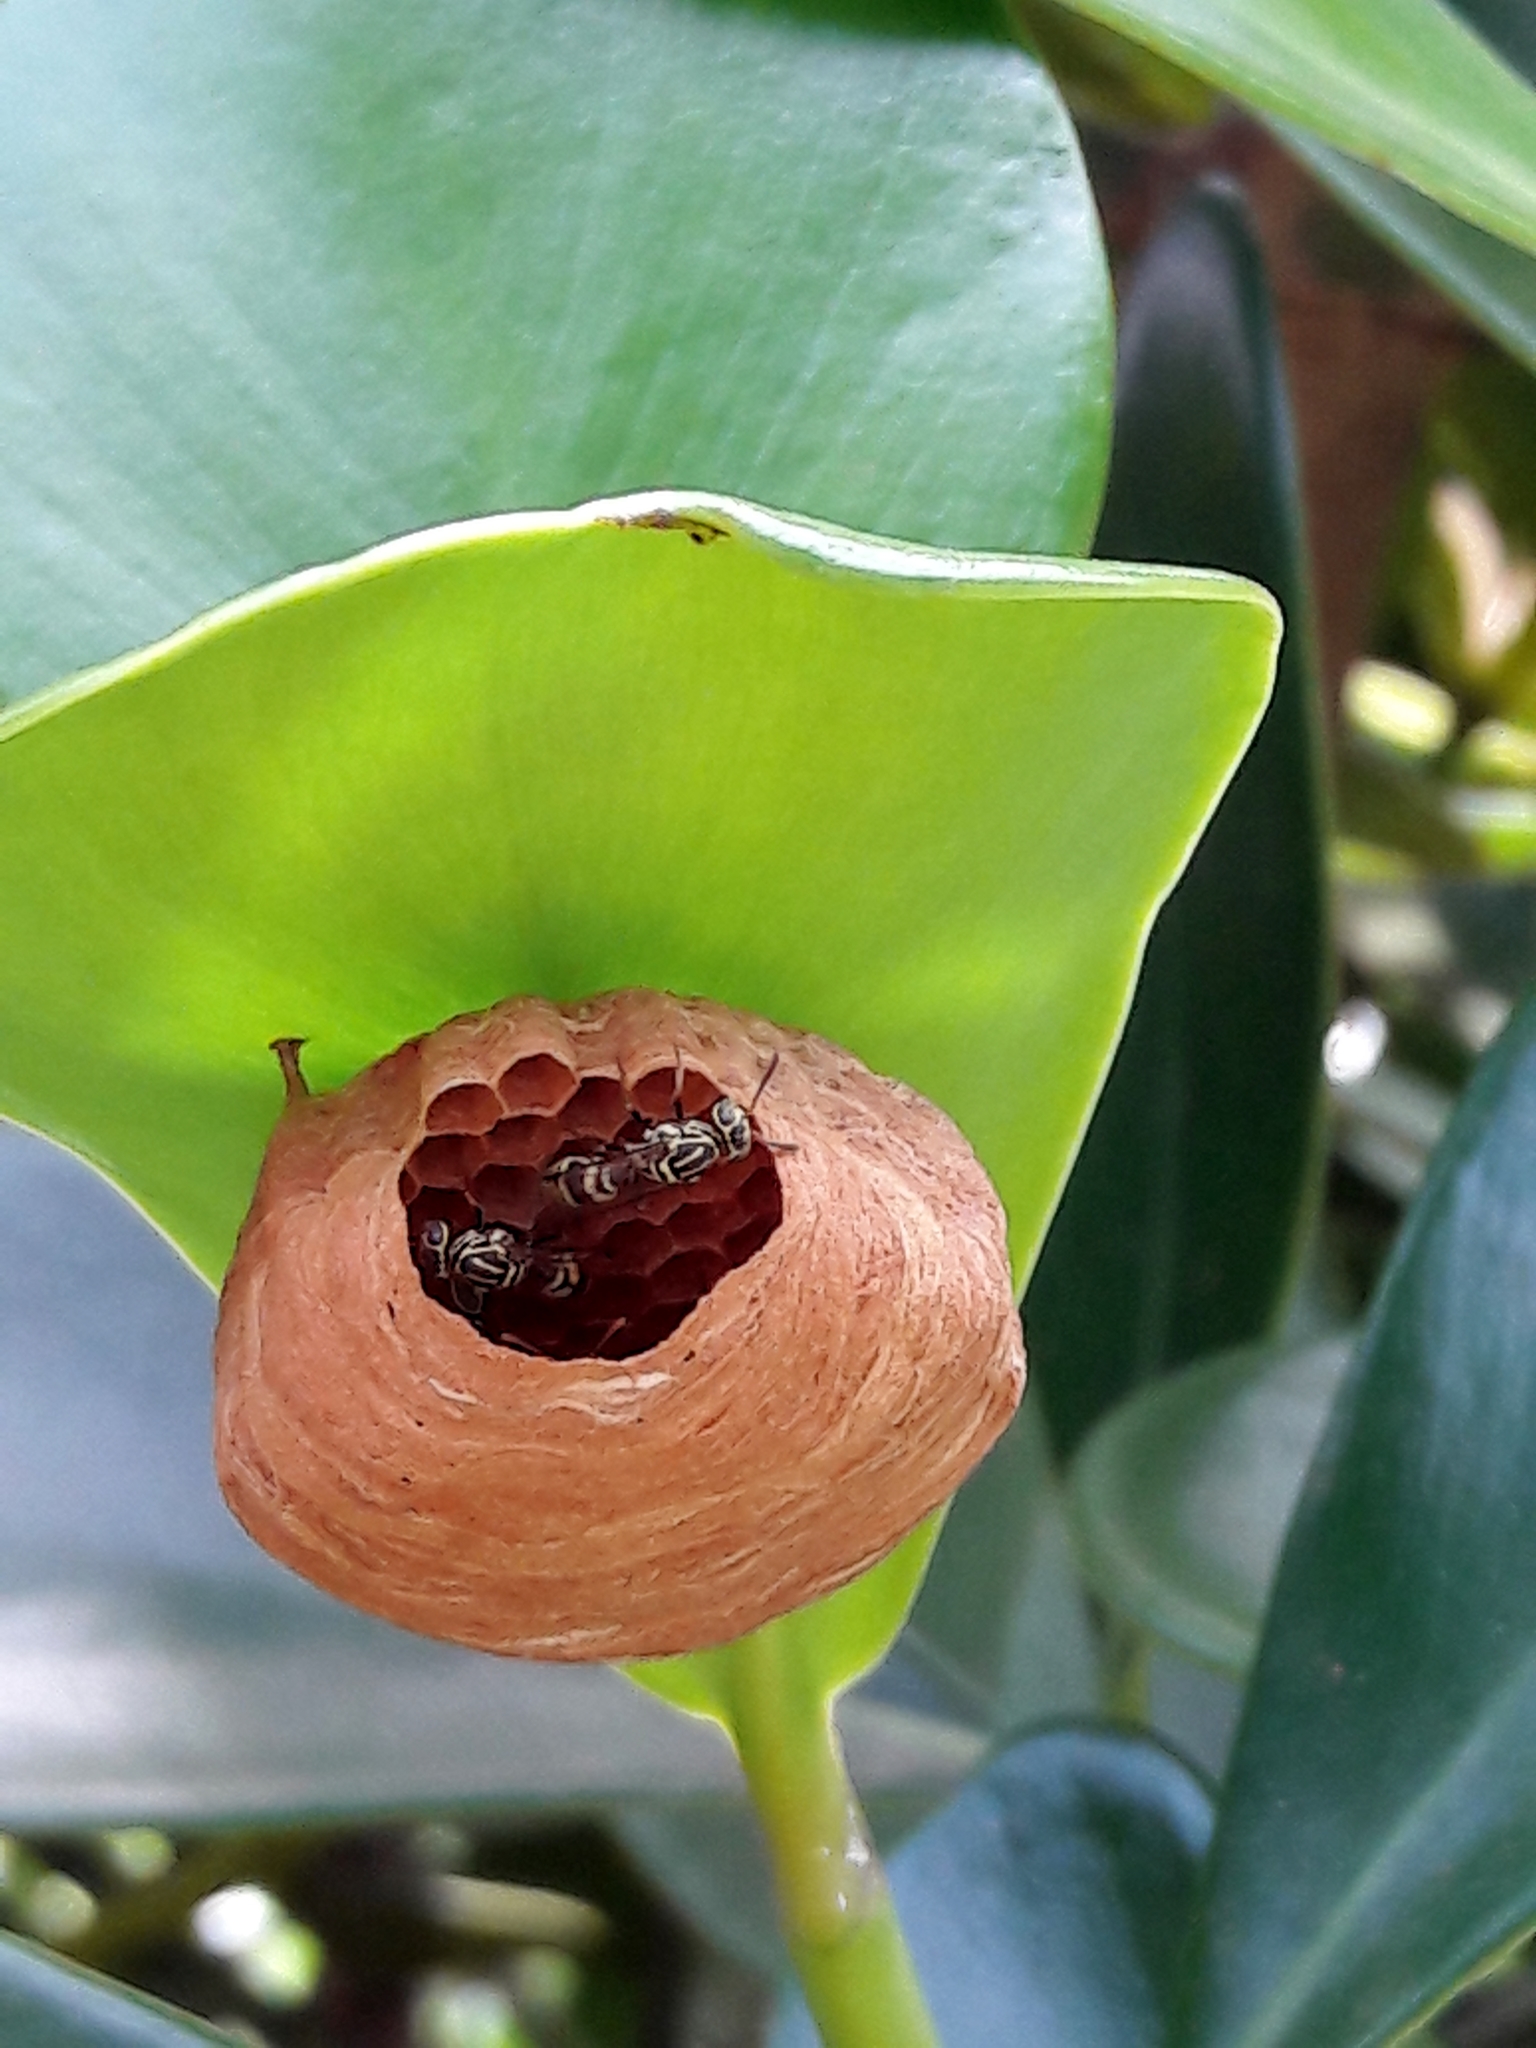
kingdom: Animalia
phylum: Arthropoda
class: Insecta
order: Hymenoptera
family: Vespidae
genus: Protopolybia
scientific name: Protopolybia exigua
